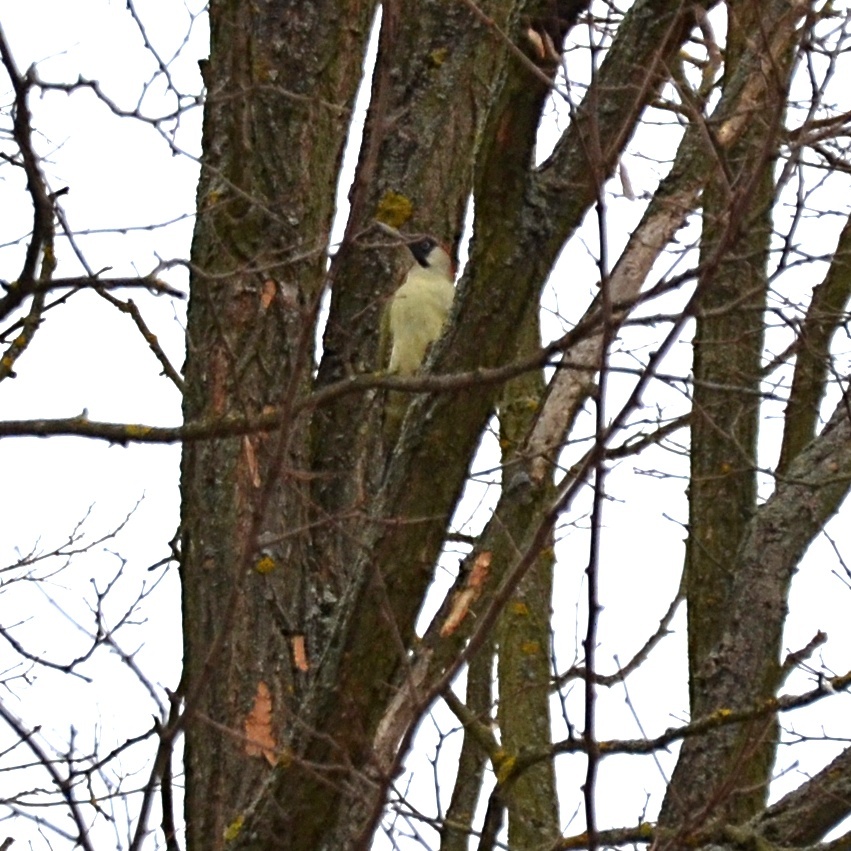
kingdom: Animalia
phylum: Chordata
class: Aves
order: Piciformes
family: Picidae
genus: Picus
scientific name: Picus viridis
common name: European green woodpecker
